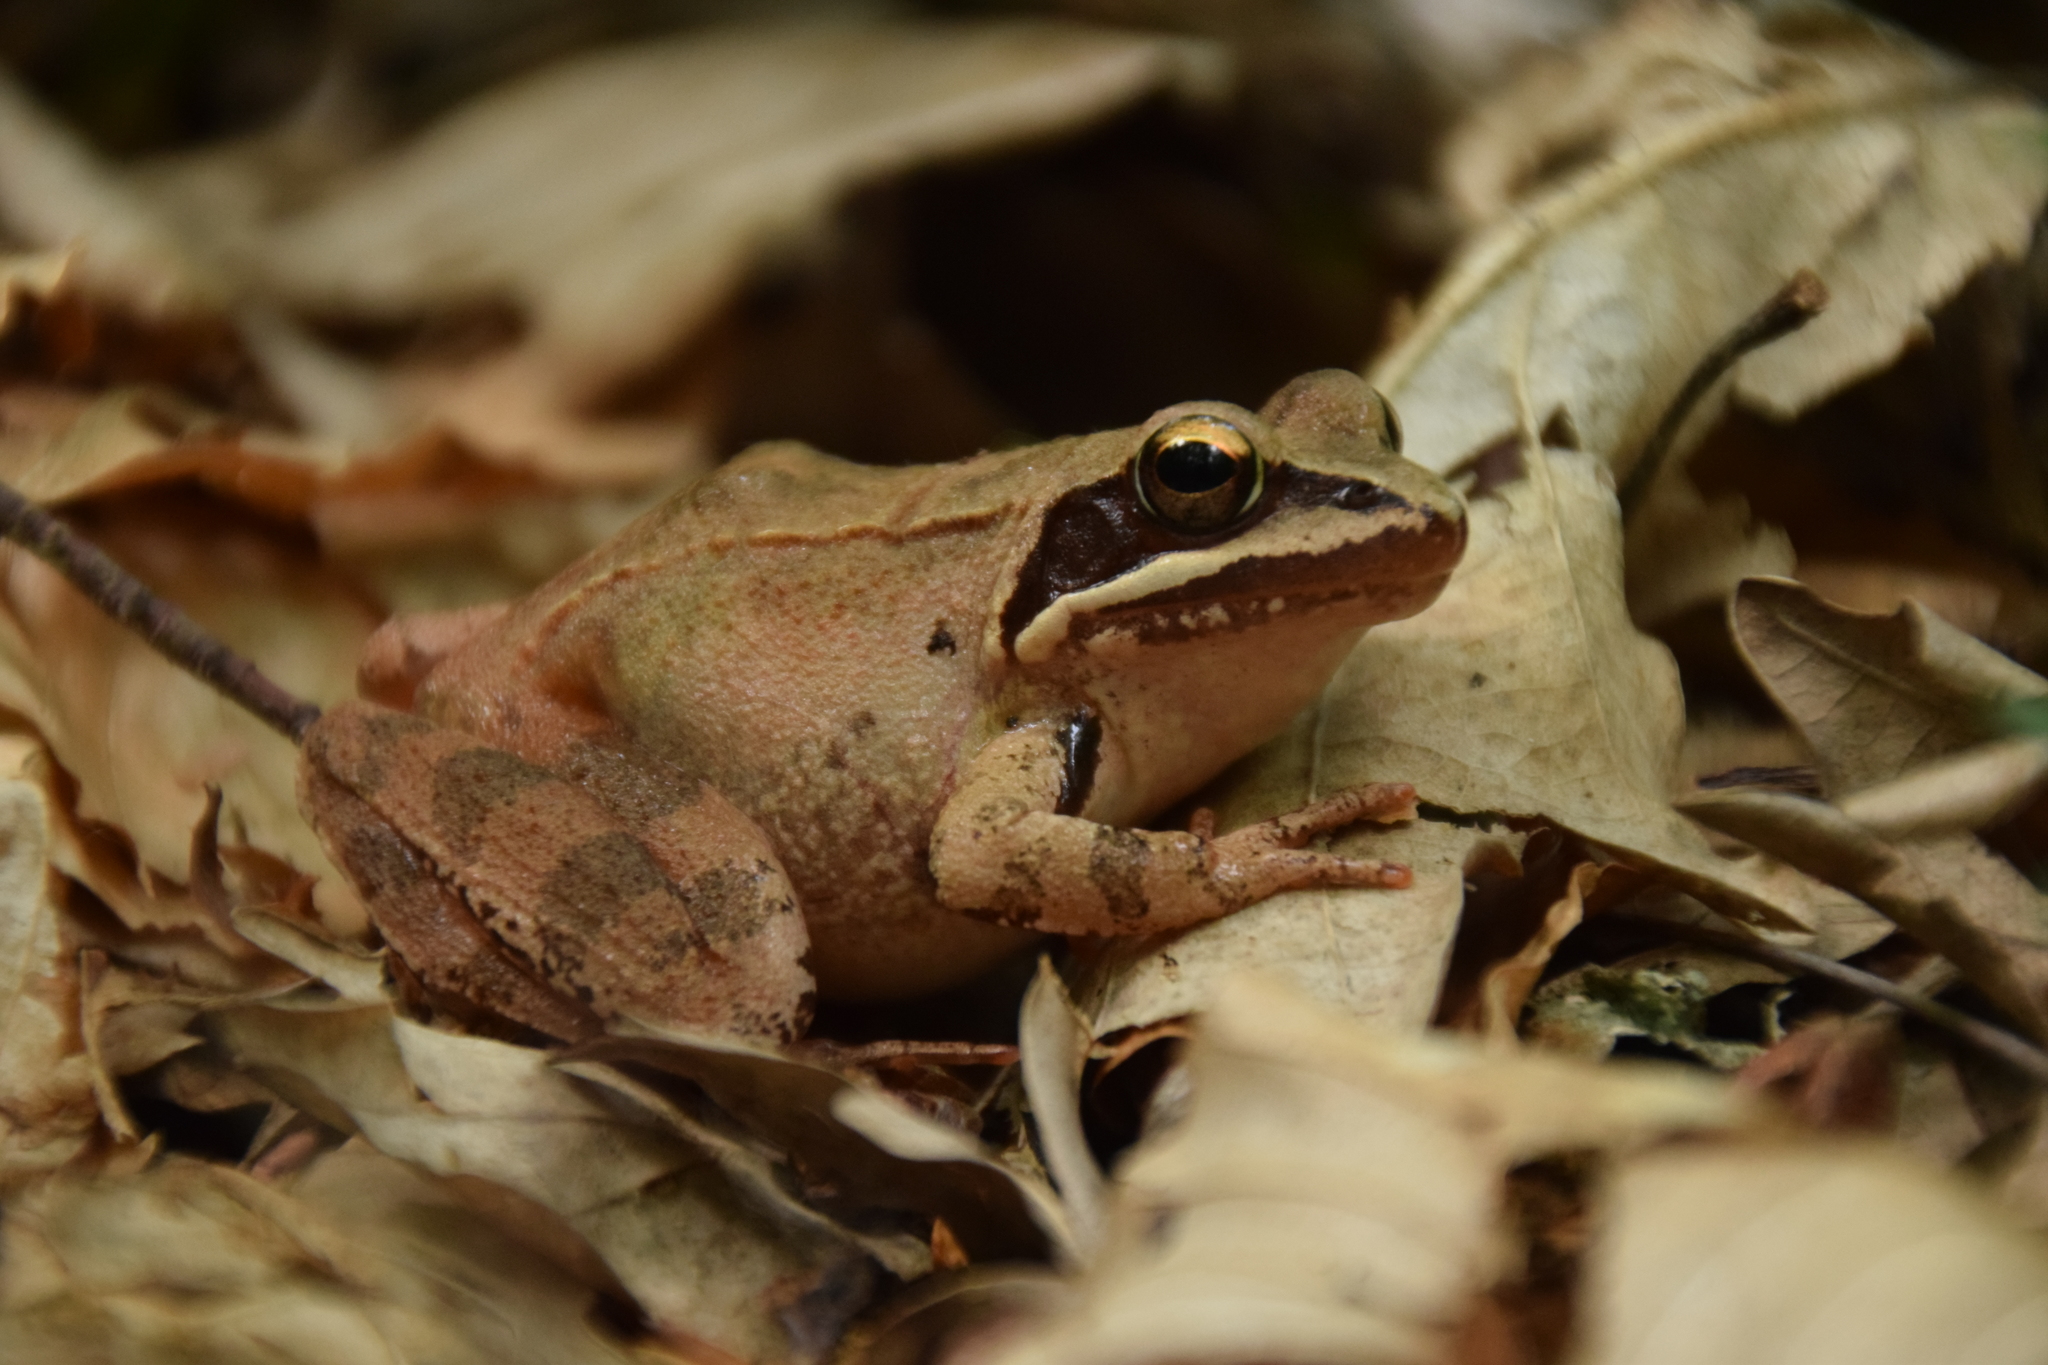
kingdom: Animalia
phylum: Chordata
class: Amphibia
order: Anura
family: Ranidae
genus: Rana
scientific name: Rana dalmatina
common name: Agile frog
